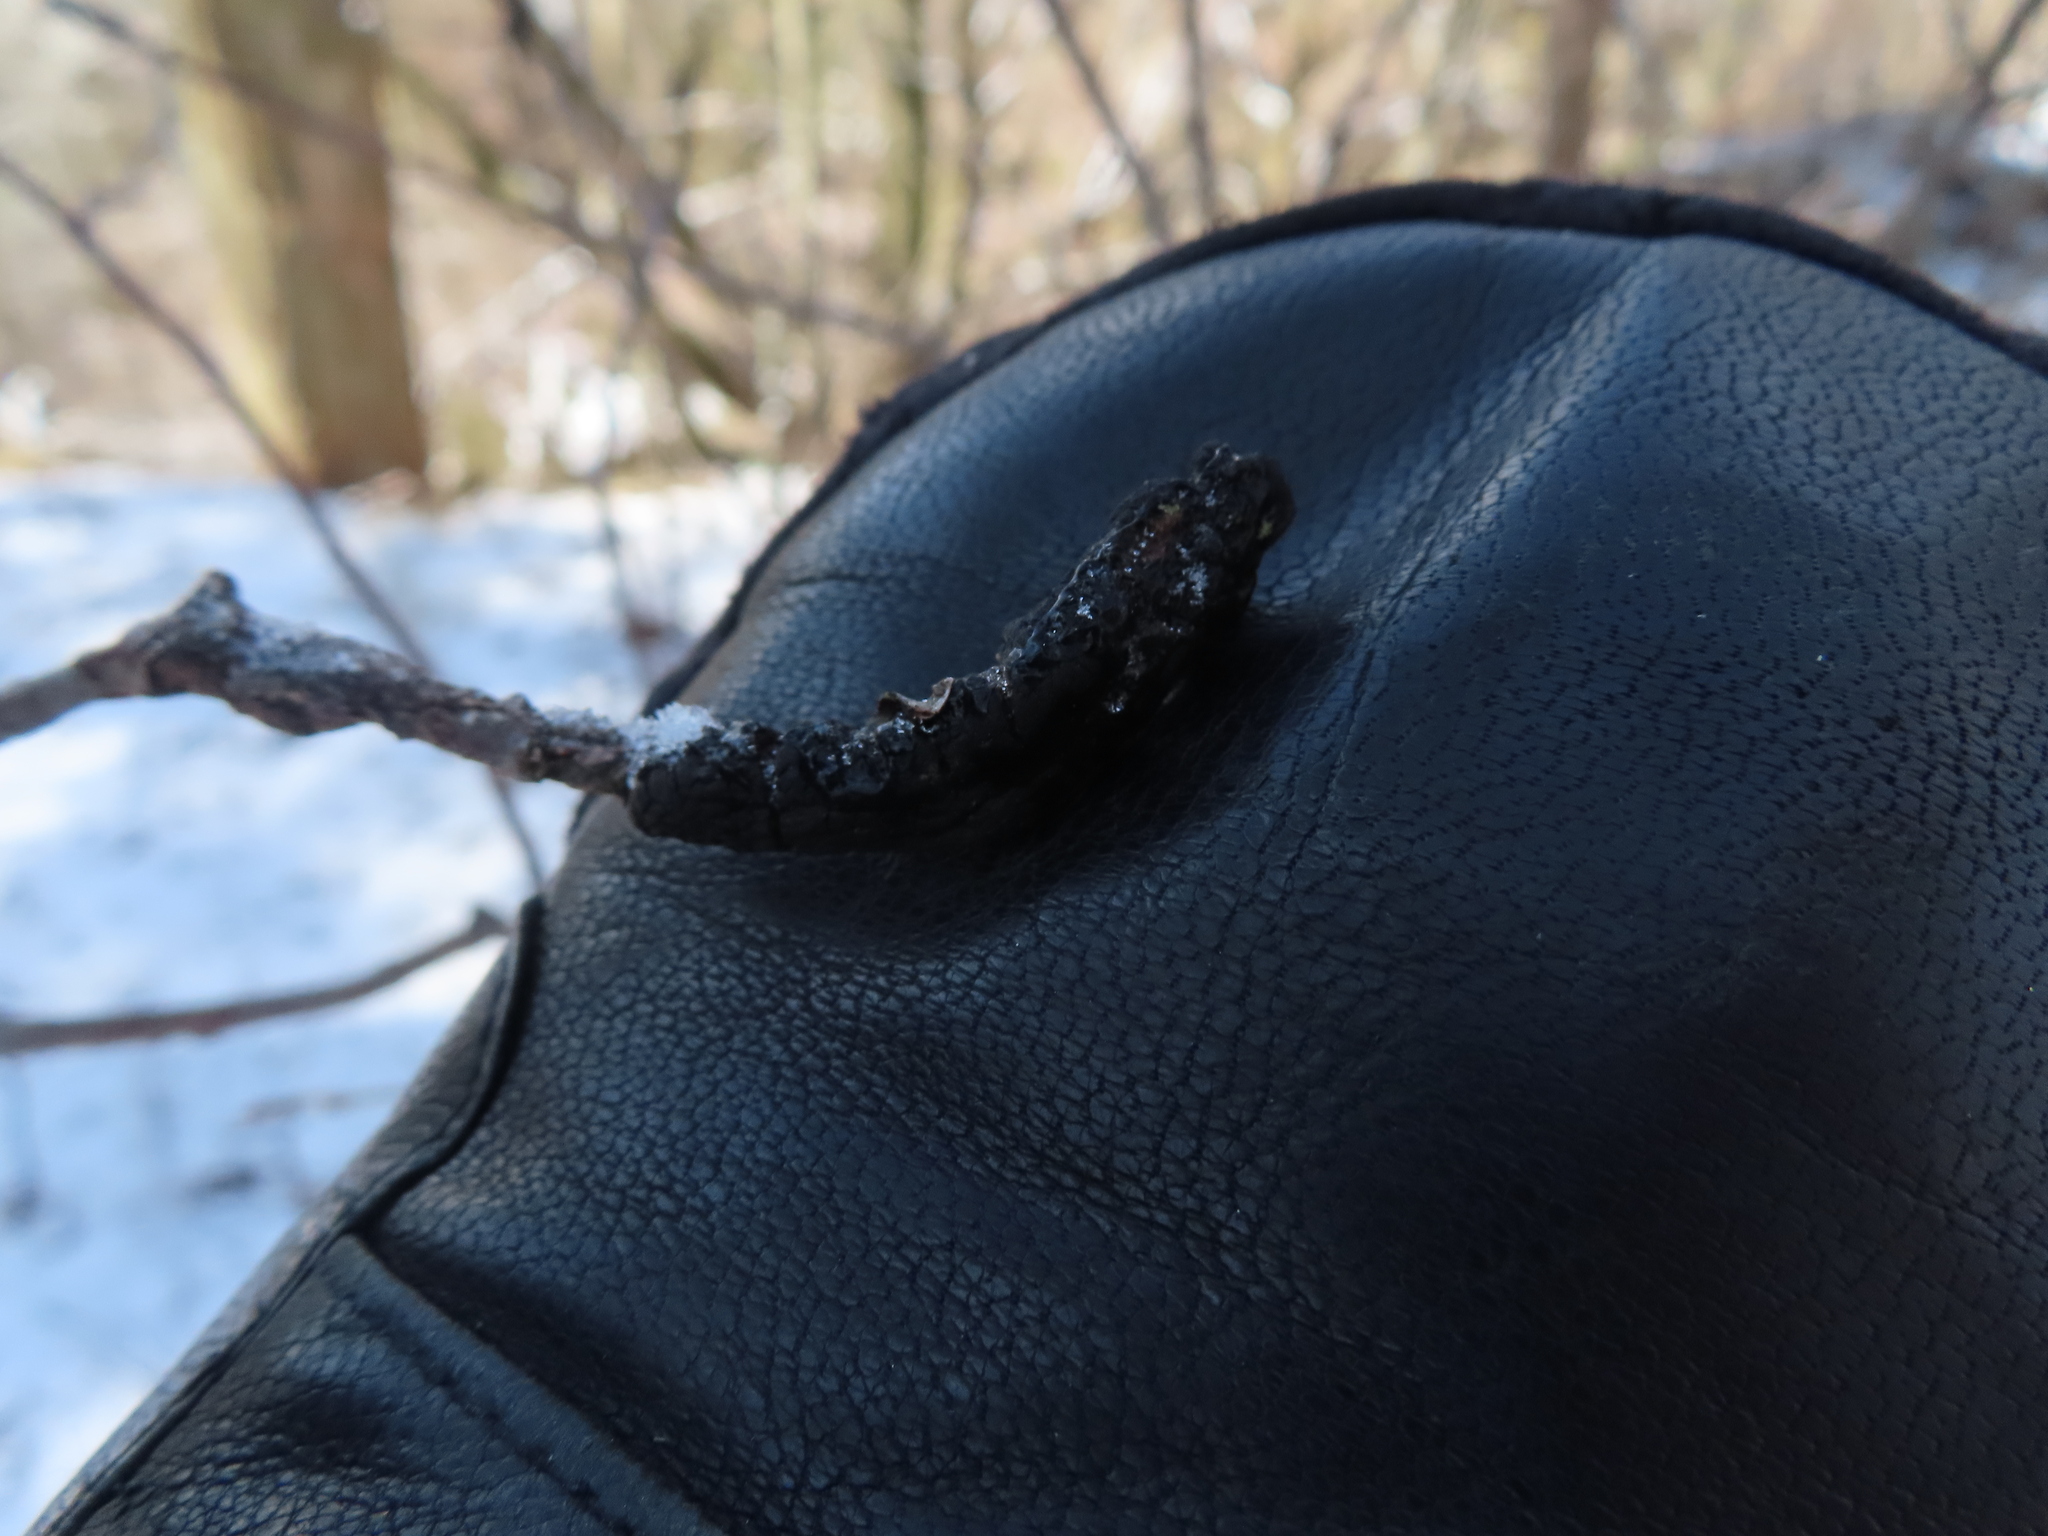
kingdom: Fungi
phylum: Ascomycota
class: Dothideomycetes
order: Venturiales
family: Venturiaceae
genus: Apiosporina
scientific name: Apiosporina morbosa
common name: Black knot
